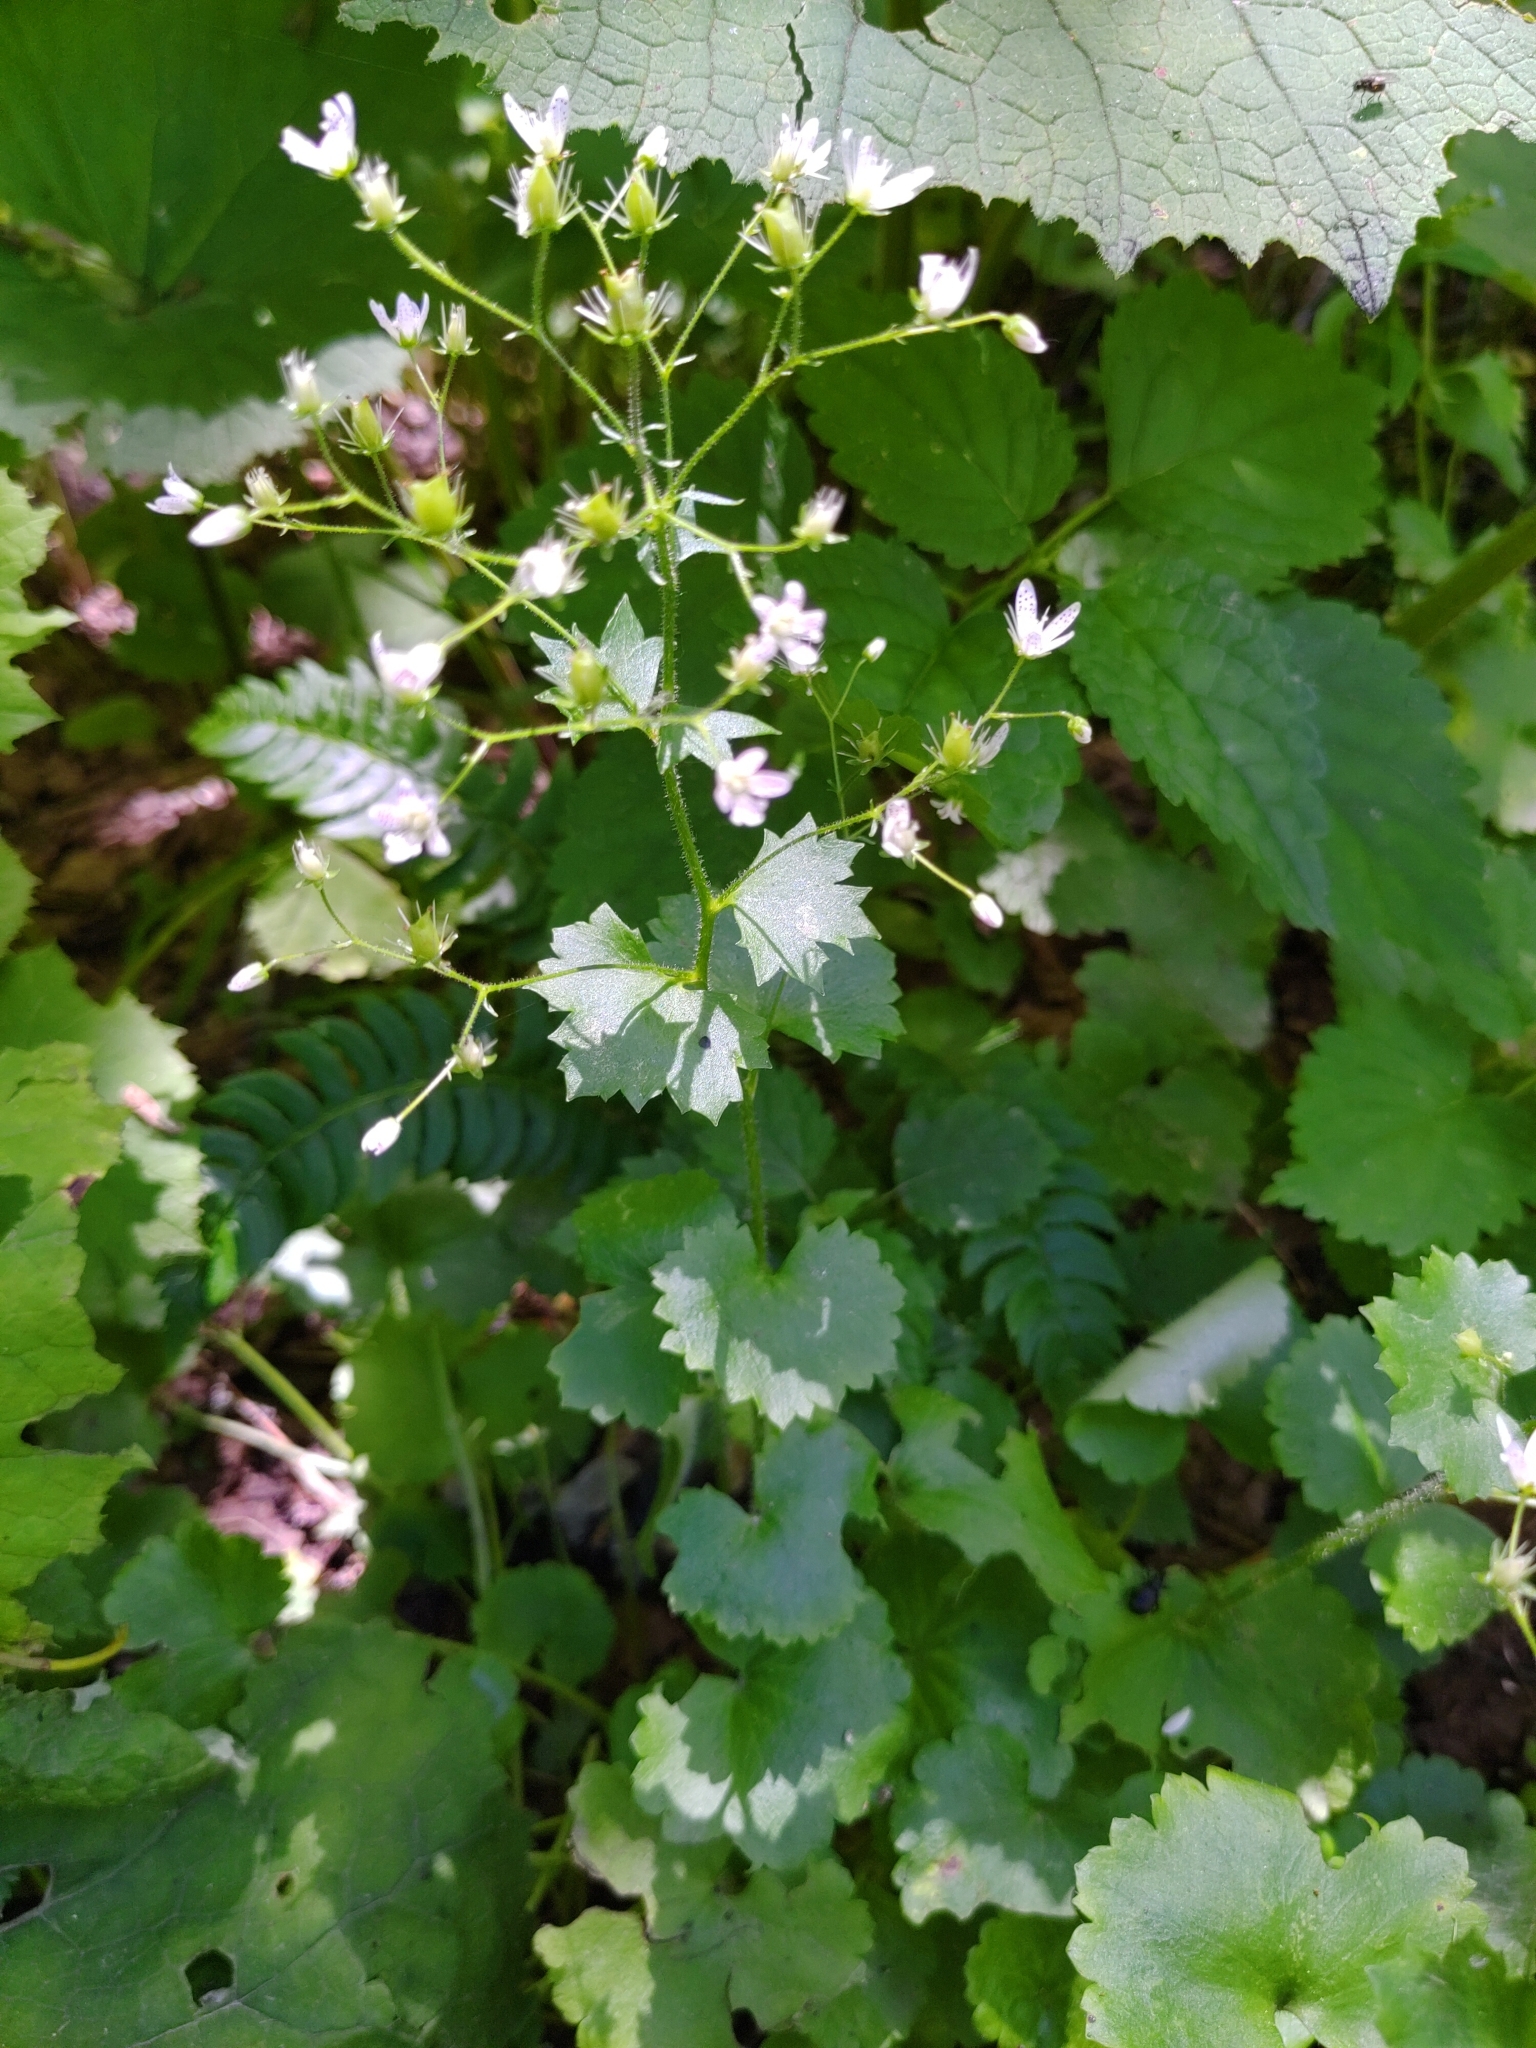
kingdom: Plantae
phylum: Tracheophyta
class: Magnoliopsida
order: Saxifragales
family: Saxifragaceae
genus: Saxifraga
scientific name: Saxifraga rotundifolia
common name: Round-leaved saxifrage
